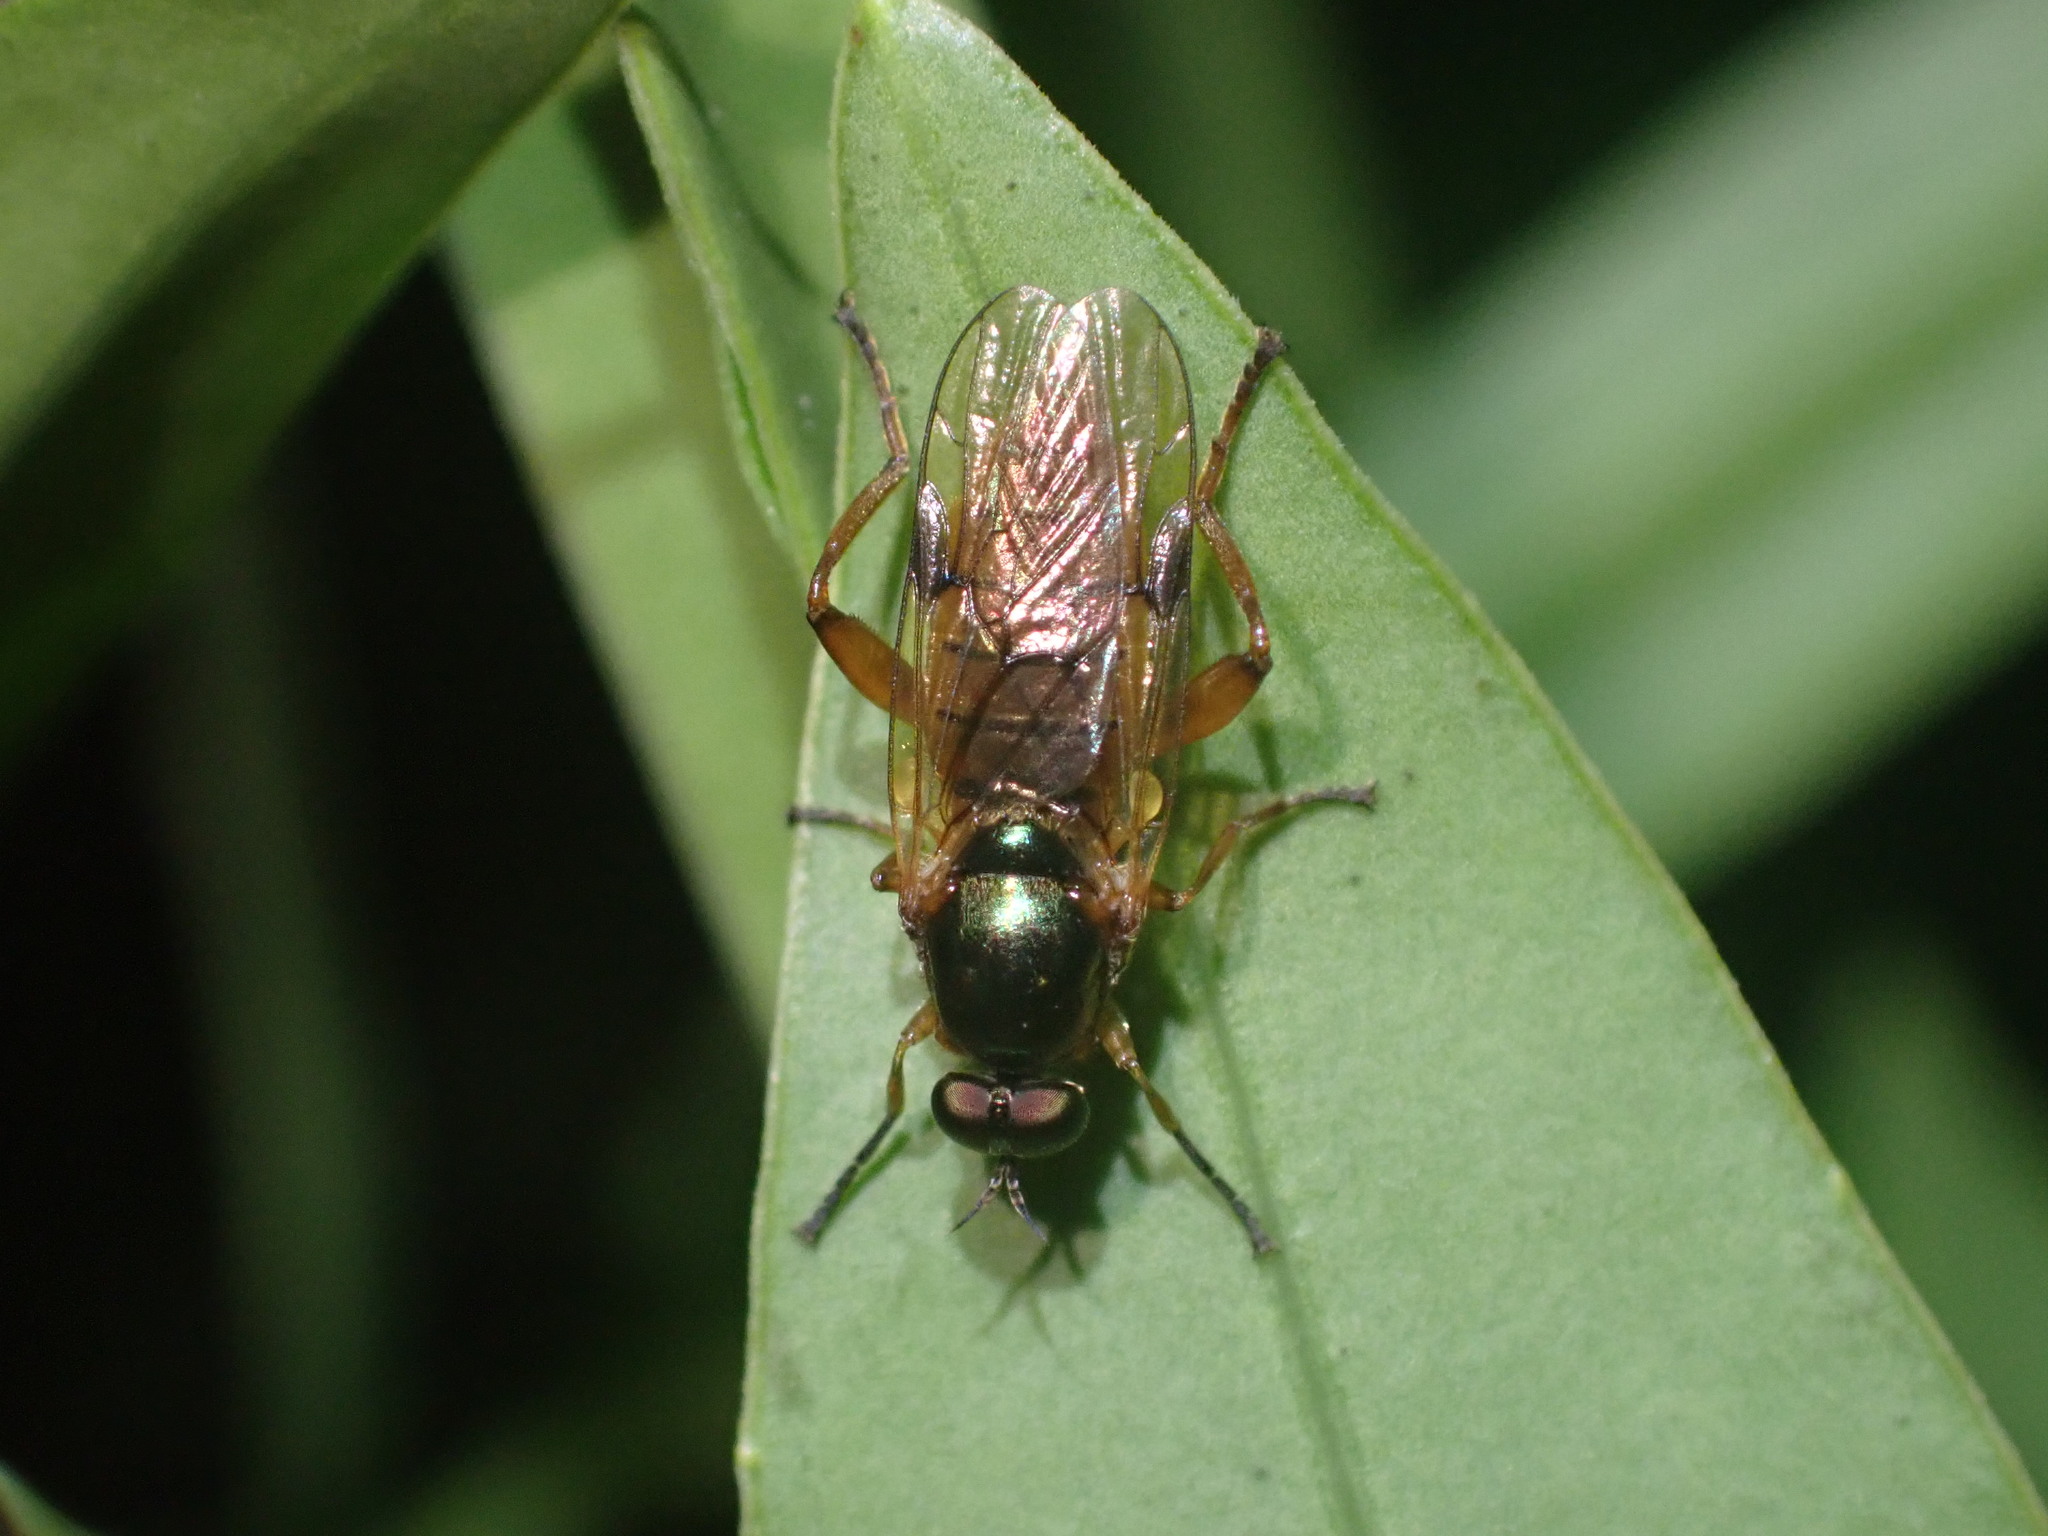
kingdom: Animalia
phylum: Arthropoda
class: Insecta
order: Diptera
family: Stratiomyidae
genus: Neactina
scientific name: Neactina opposita
